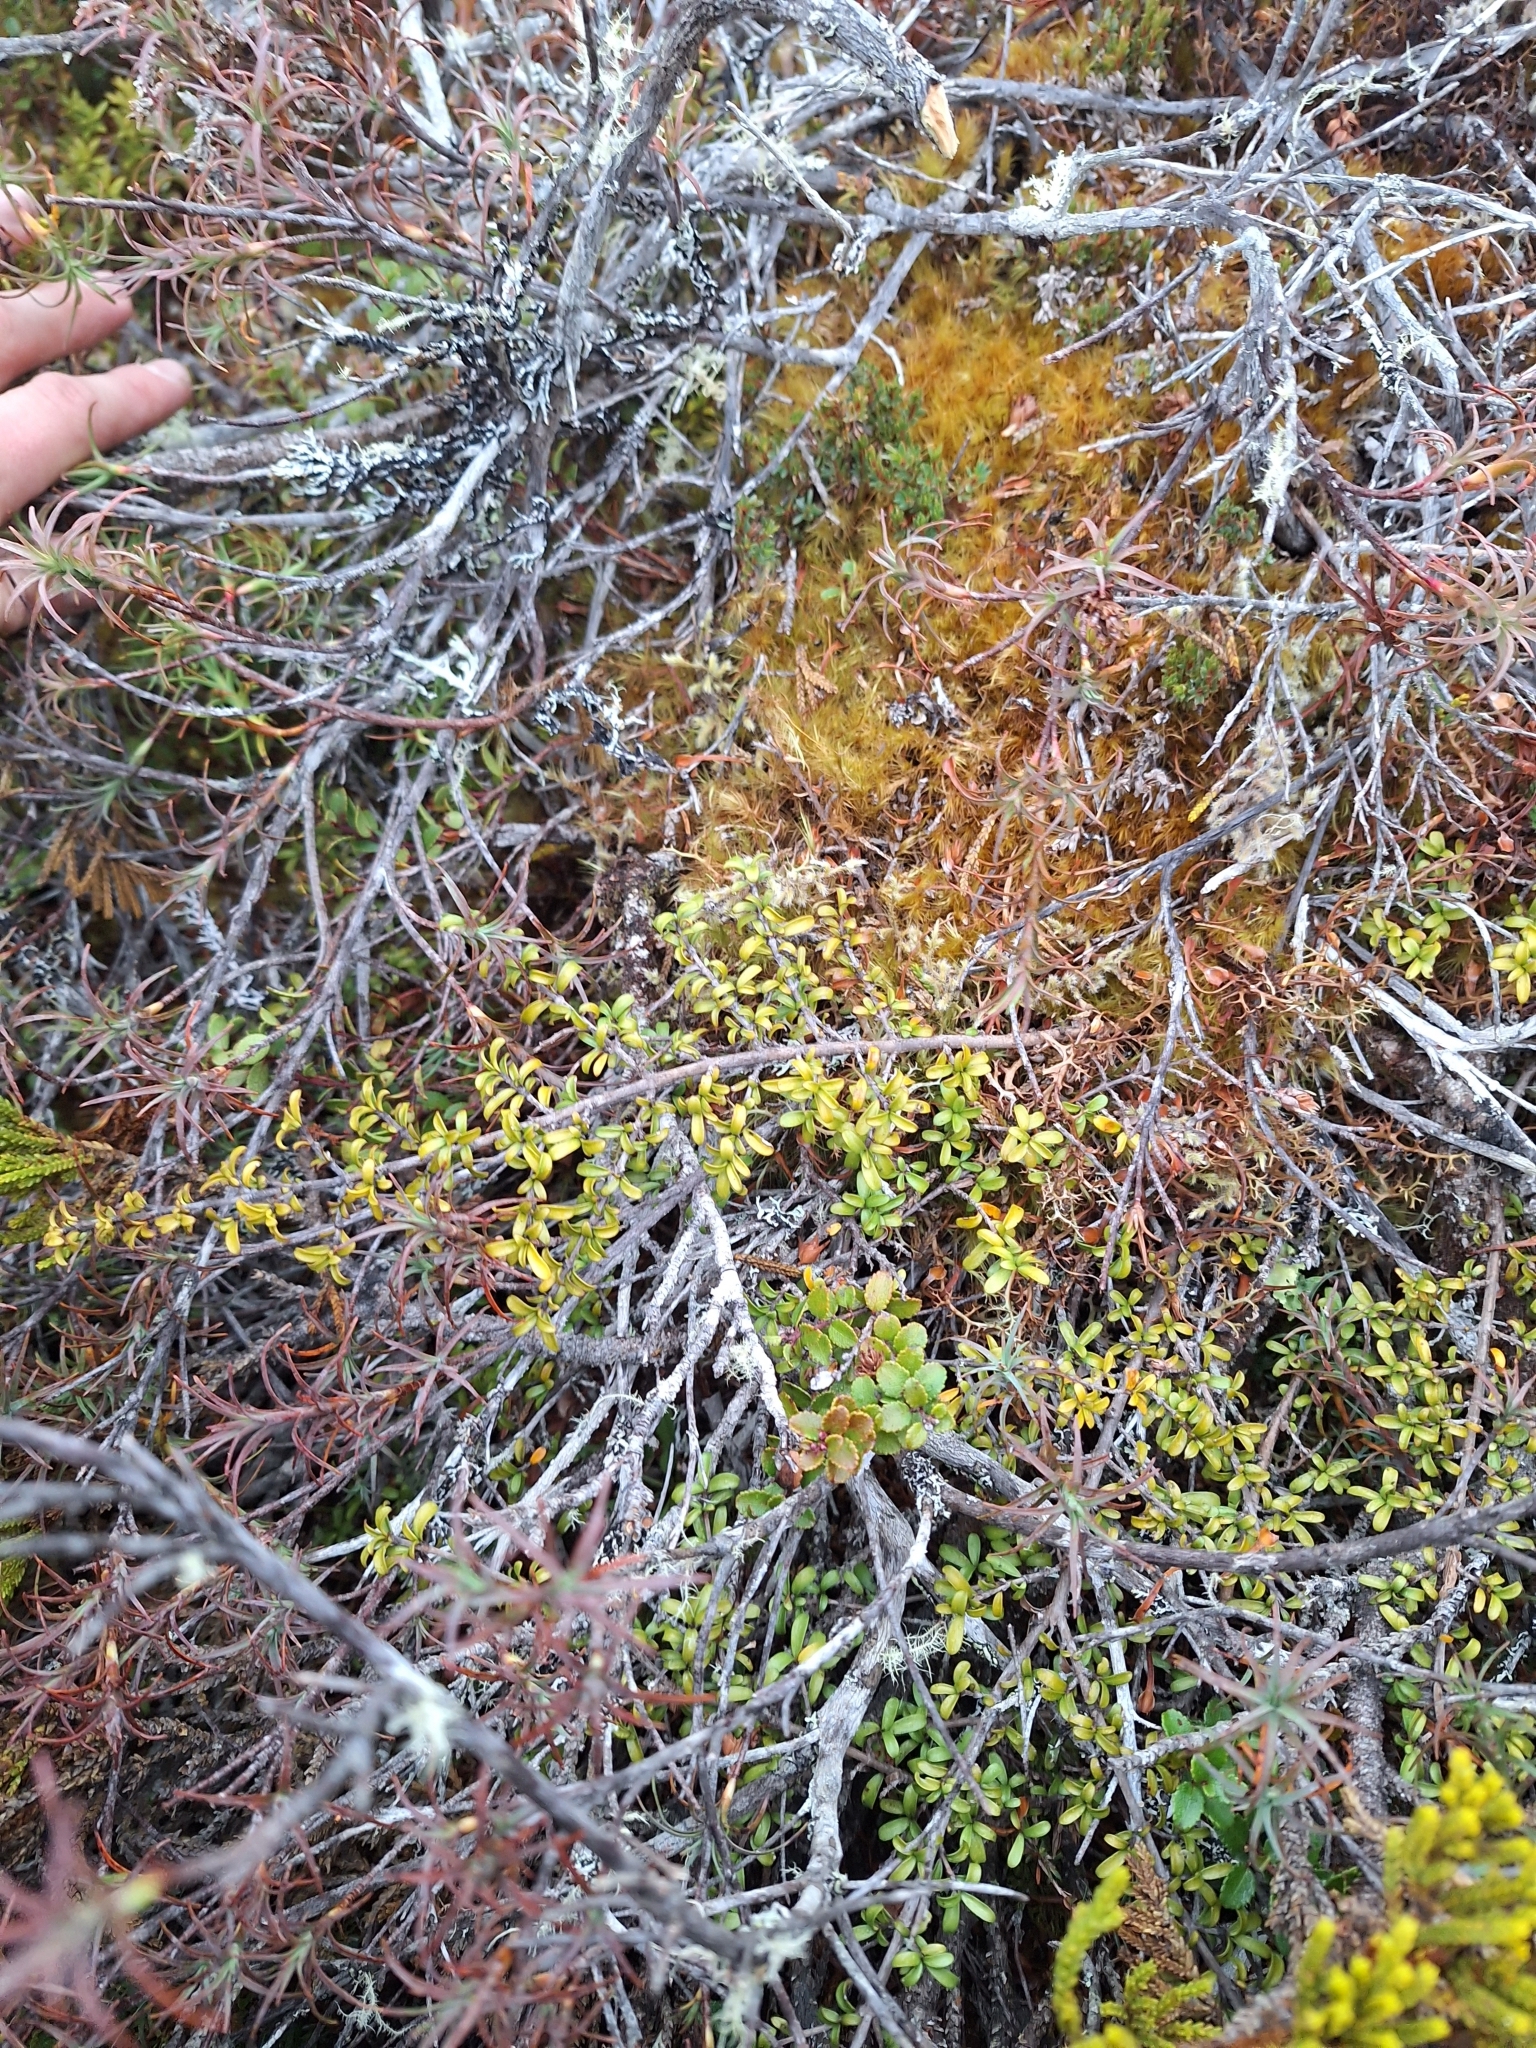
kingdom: Plantae
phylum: Tracheophyta
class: Magnoliopsida
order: Gentianales
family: Rubiaceae
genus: Coprosma
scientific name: Coprosma cheesemanii
